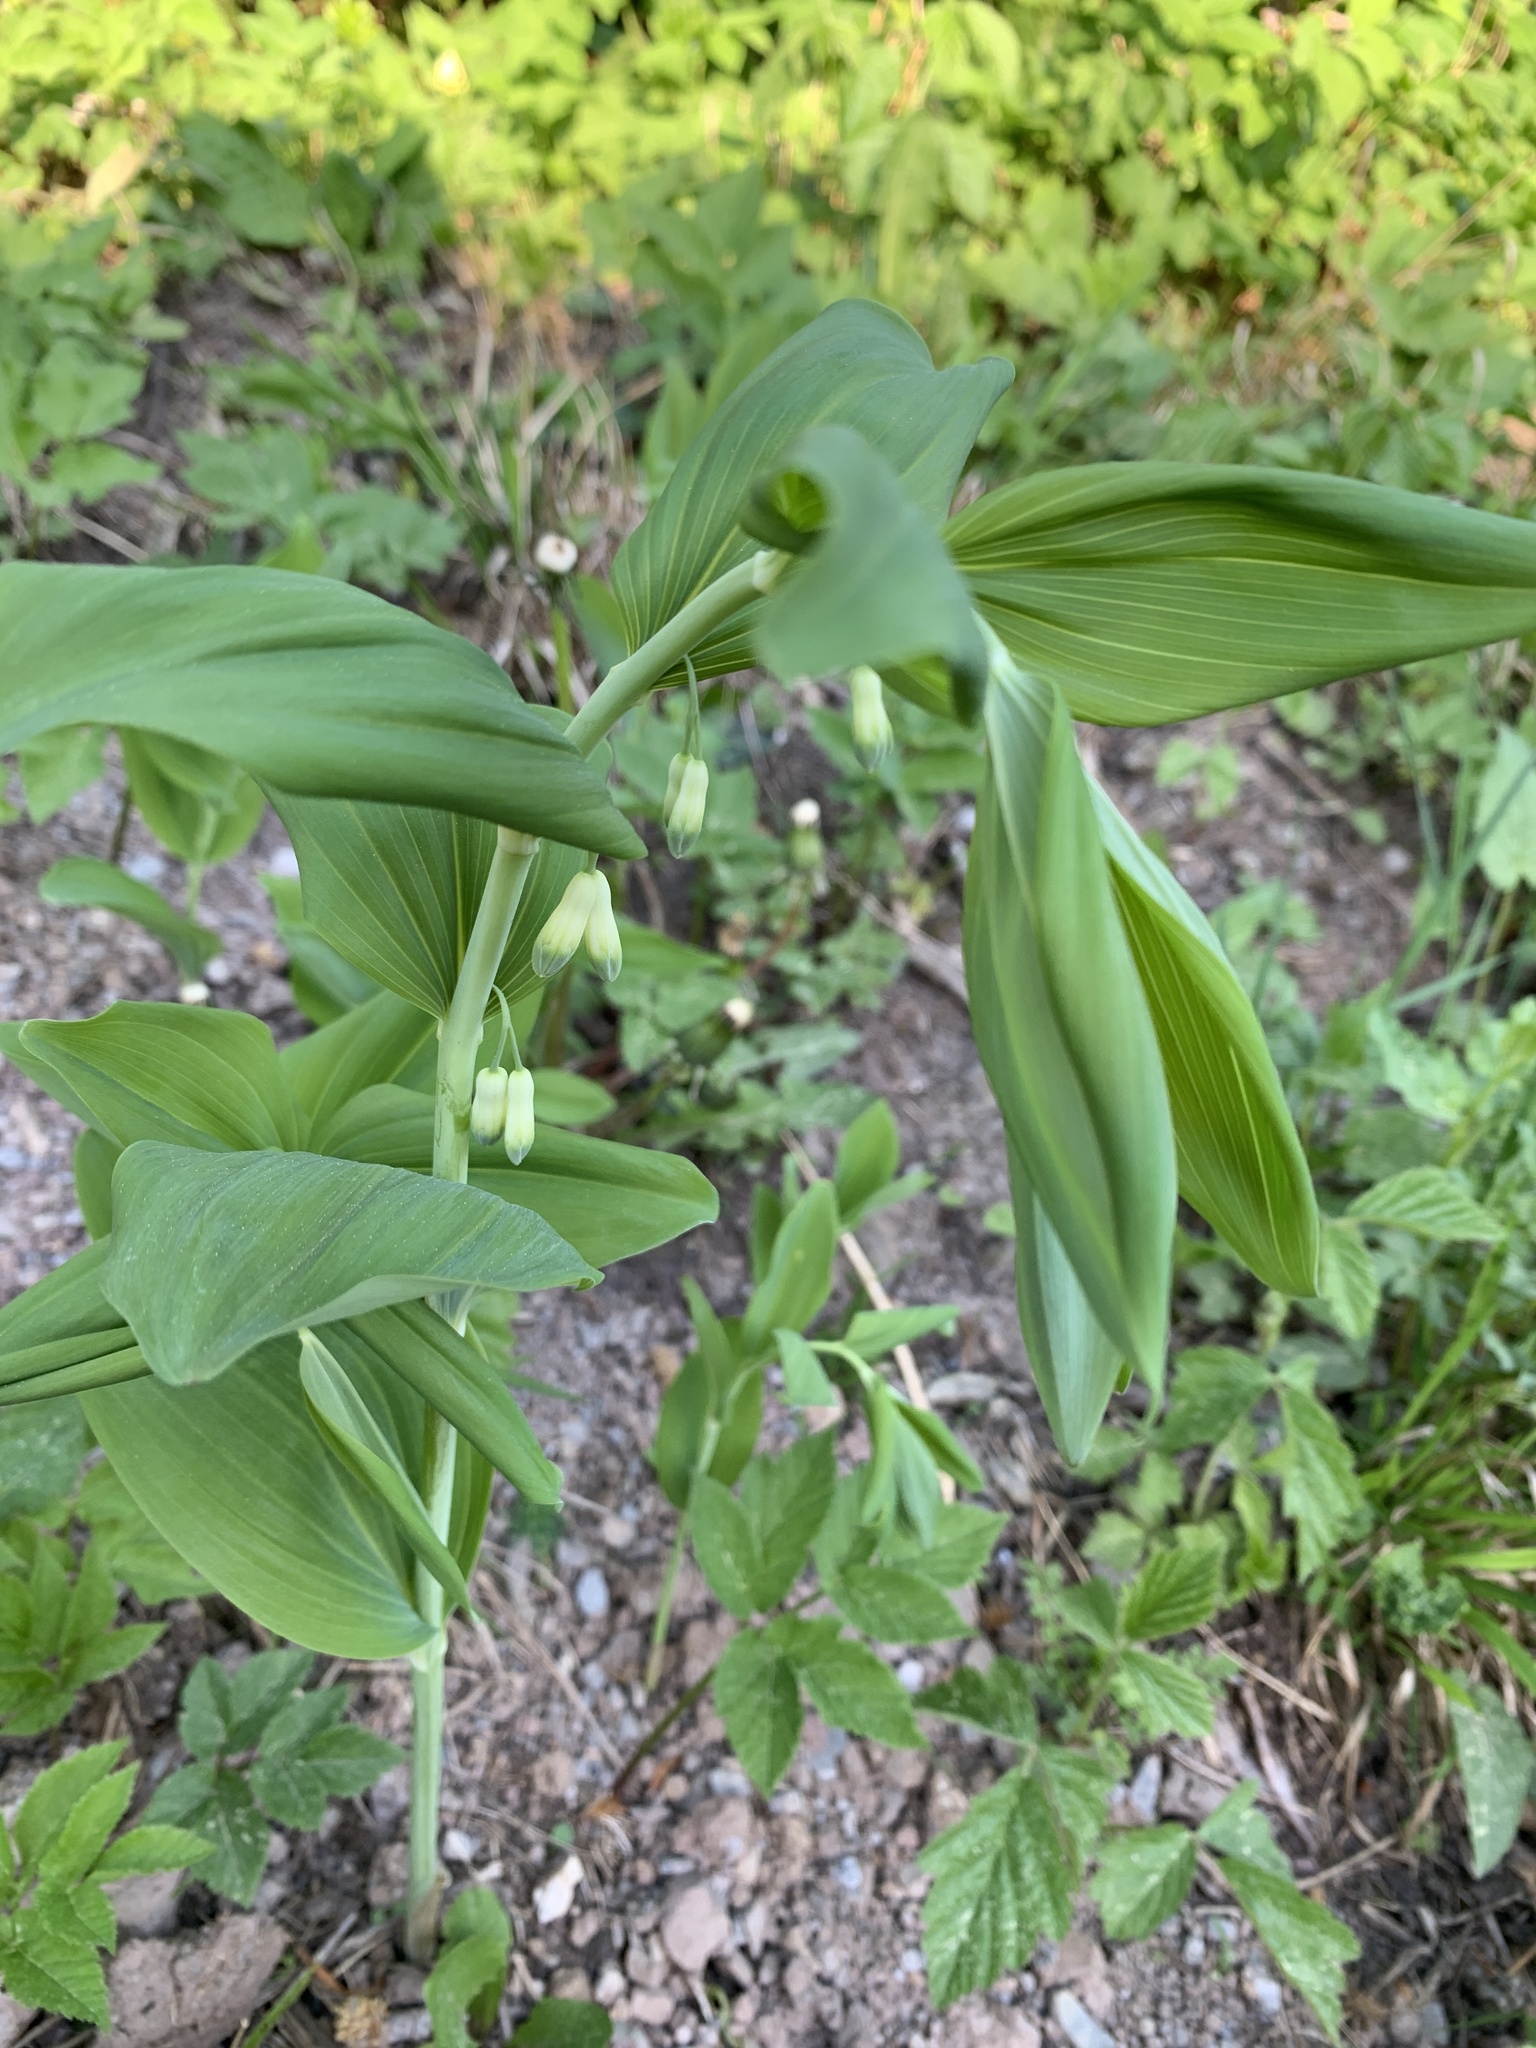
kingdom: Plantae
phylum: Tracheophyta
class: Liliopsida
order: Asparagales
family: Asparagaceae
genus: Polygonatum
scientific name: Polygonatum multiflorum
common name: Solomon's-seal
